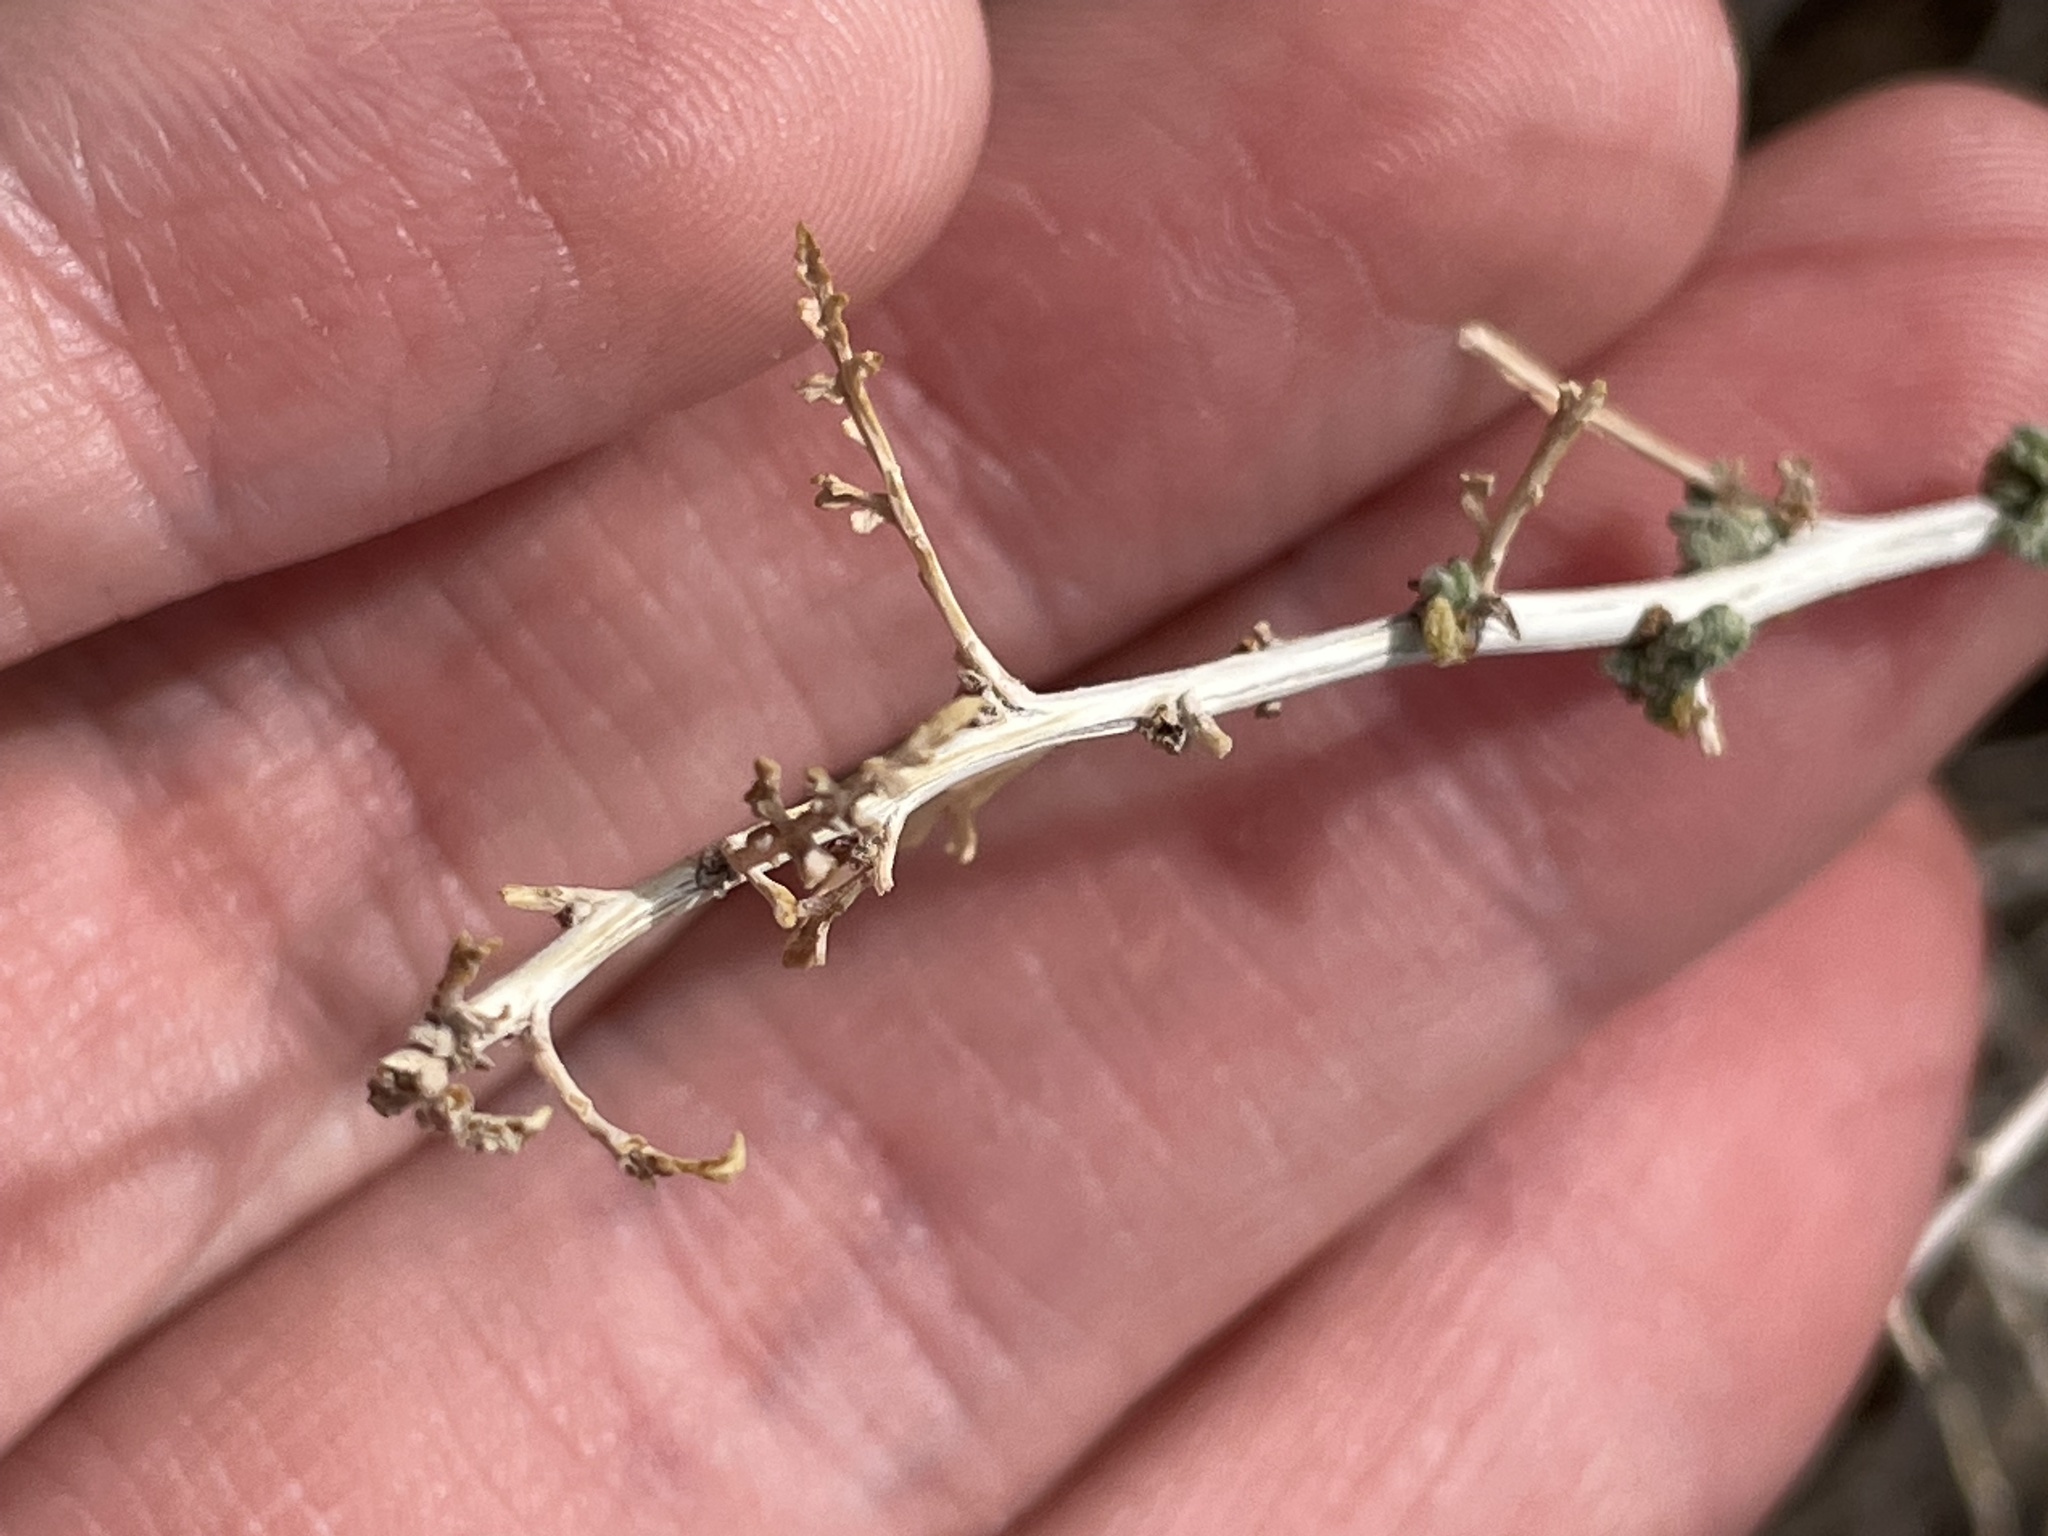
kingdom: Plantae
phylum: Tracheophyta
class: Magnoliopsida
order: Asterales
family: Asteraceae
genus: Ambrosia
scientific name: Ambrosia dumosa
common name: Bur-sage
